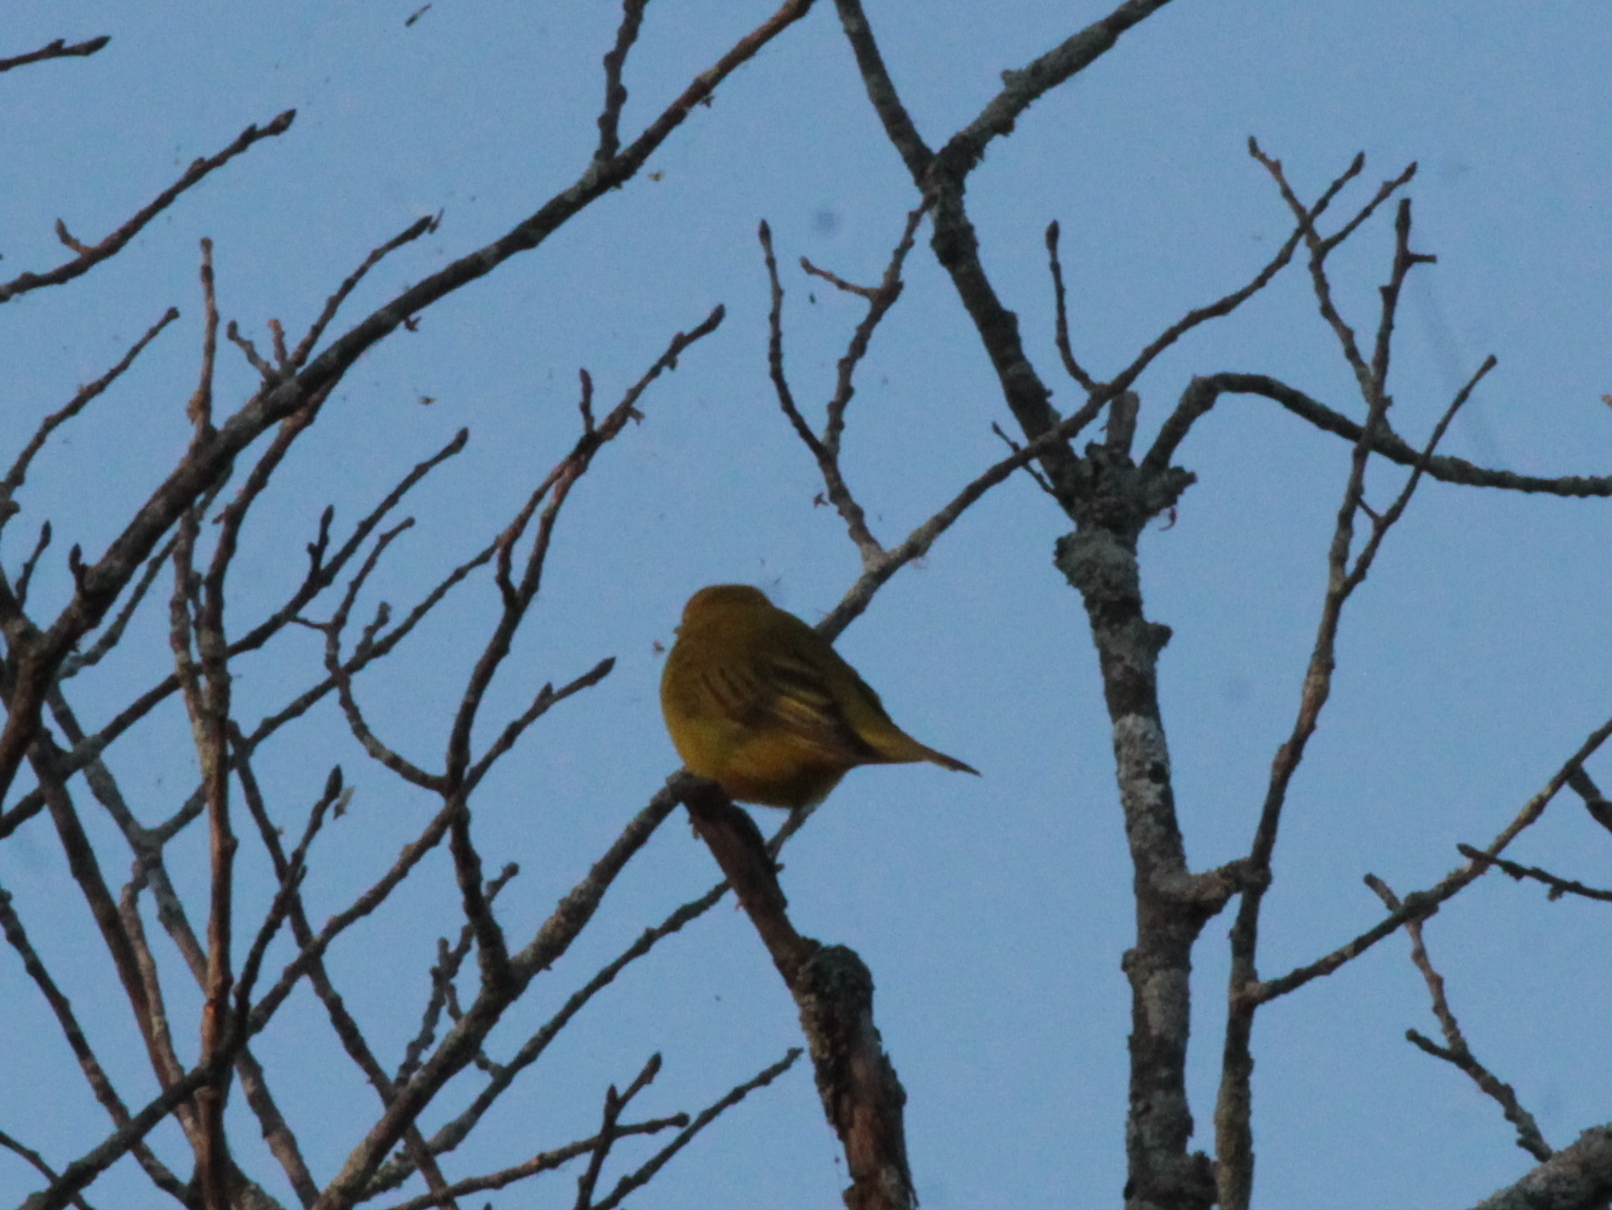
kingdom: Animalia
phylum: Chordata
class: Aves
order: Passeriformes
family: Parulidae
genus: Setophaga
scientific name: Setophaga petechia
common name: Yellow warbler
